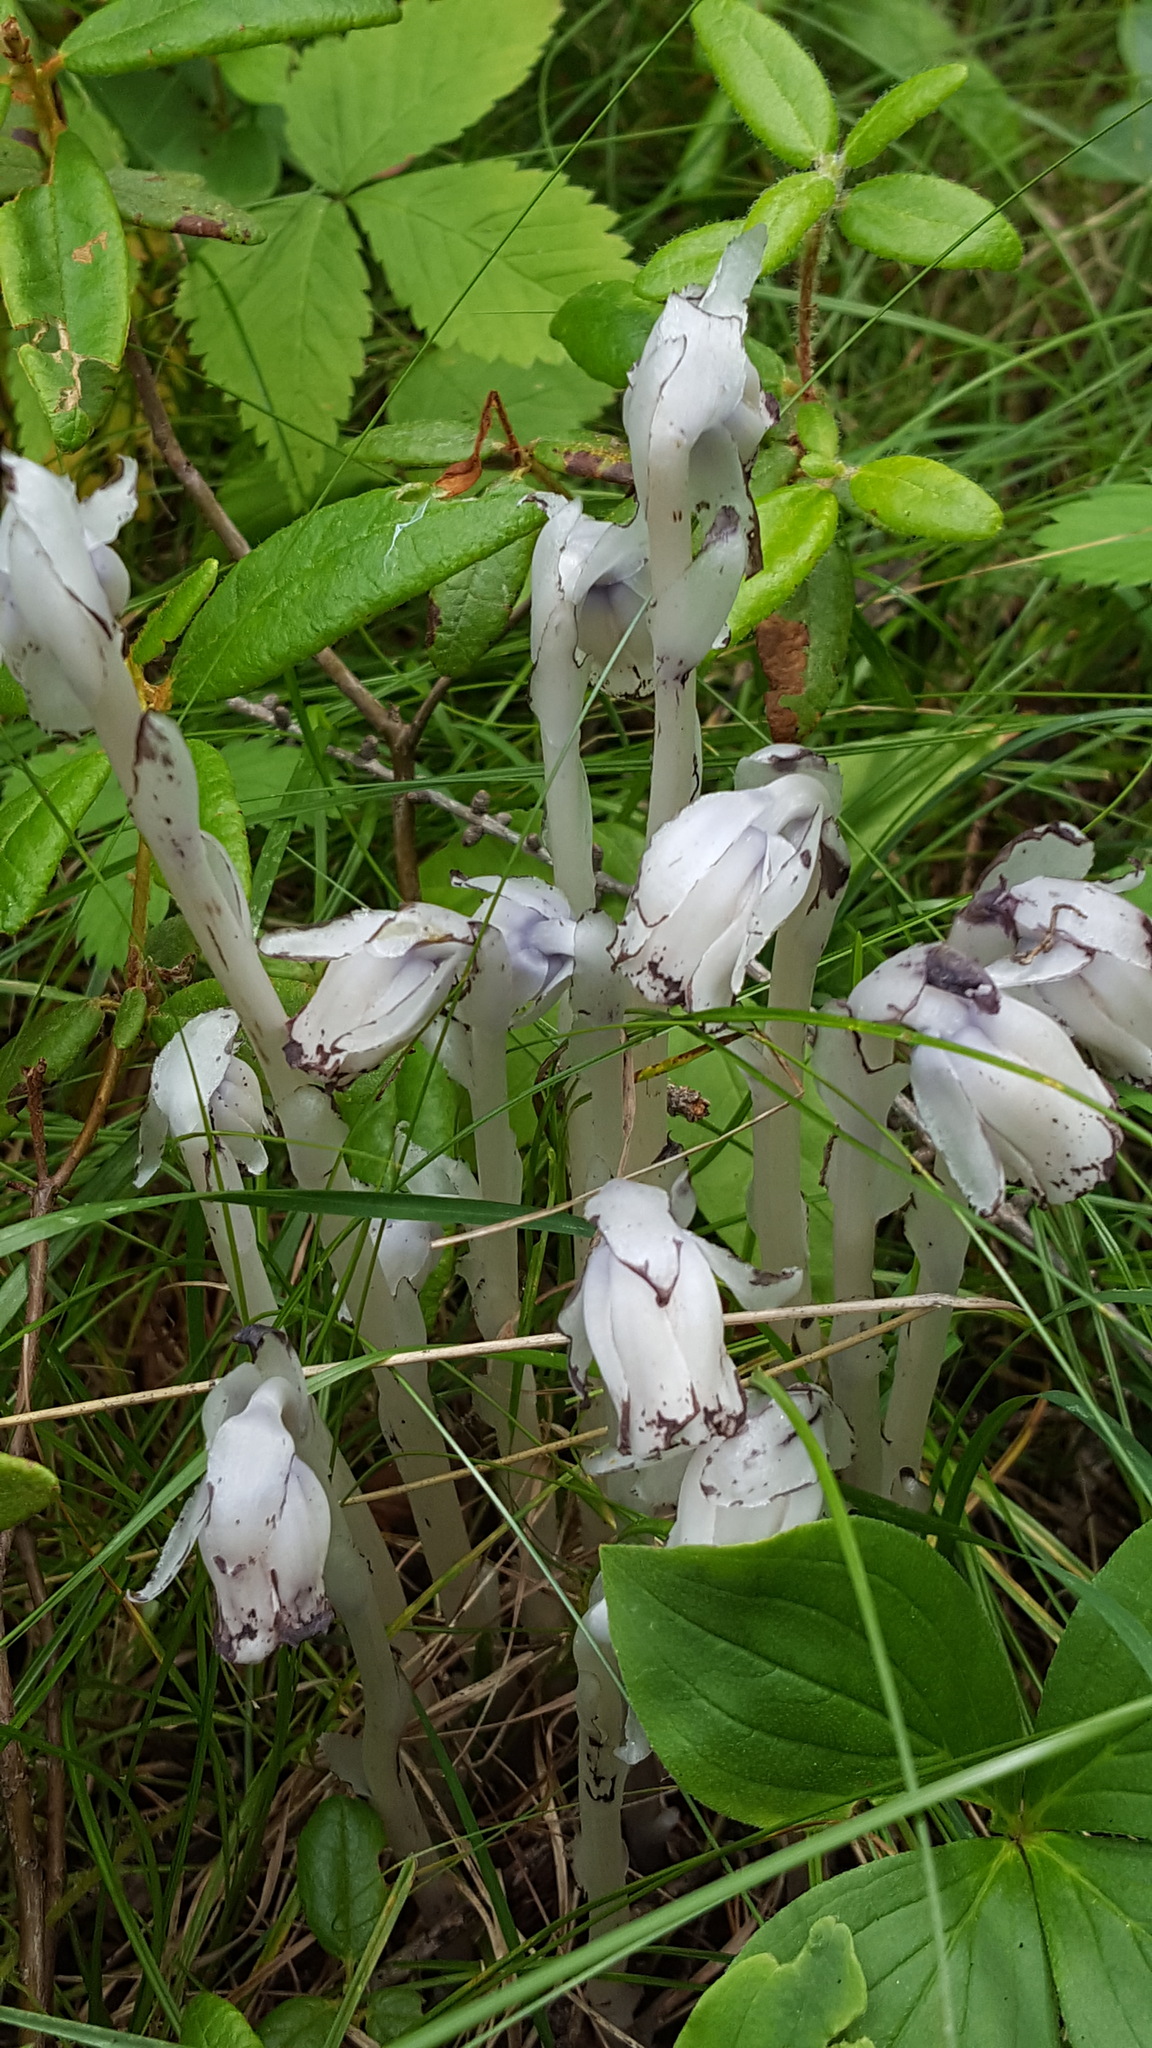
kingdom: Plantae
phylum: Tracheophyta
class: Magnoliopsida
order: Ericales
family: Ericaceae
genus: Monotropa
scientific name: Monotropa uniflora
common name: Convulsion root
